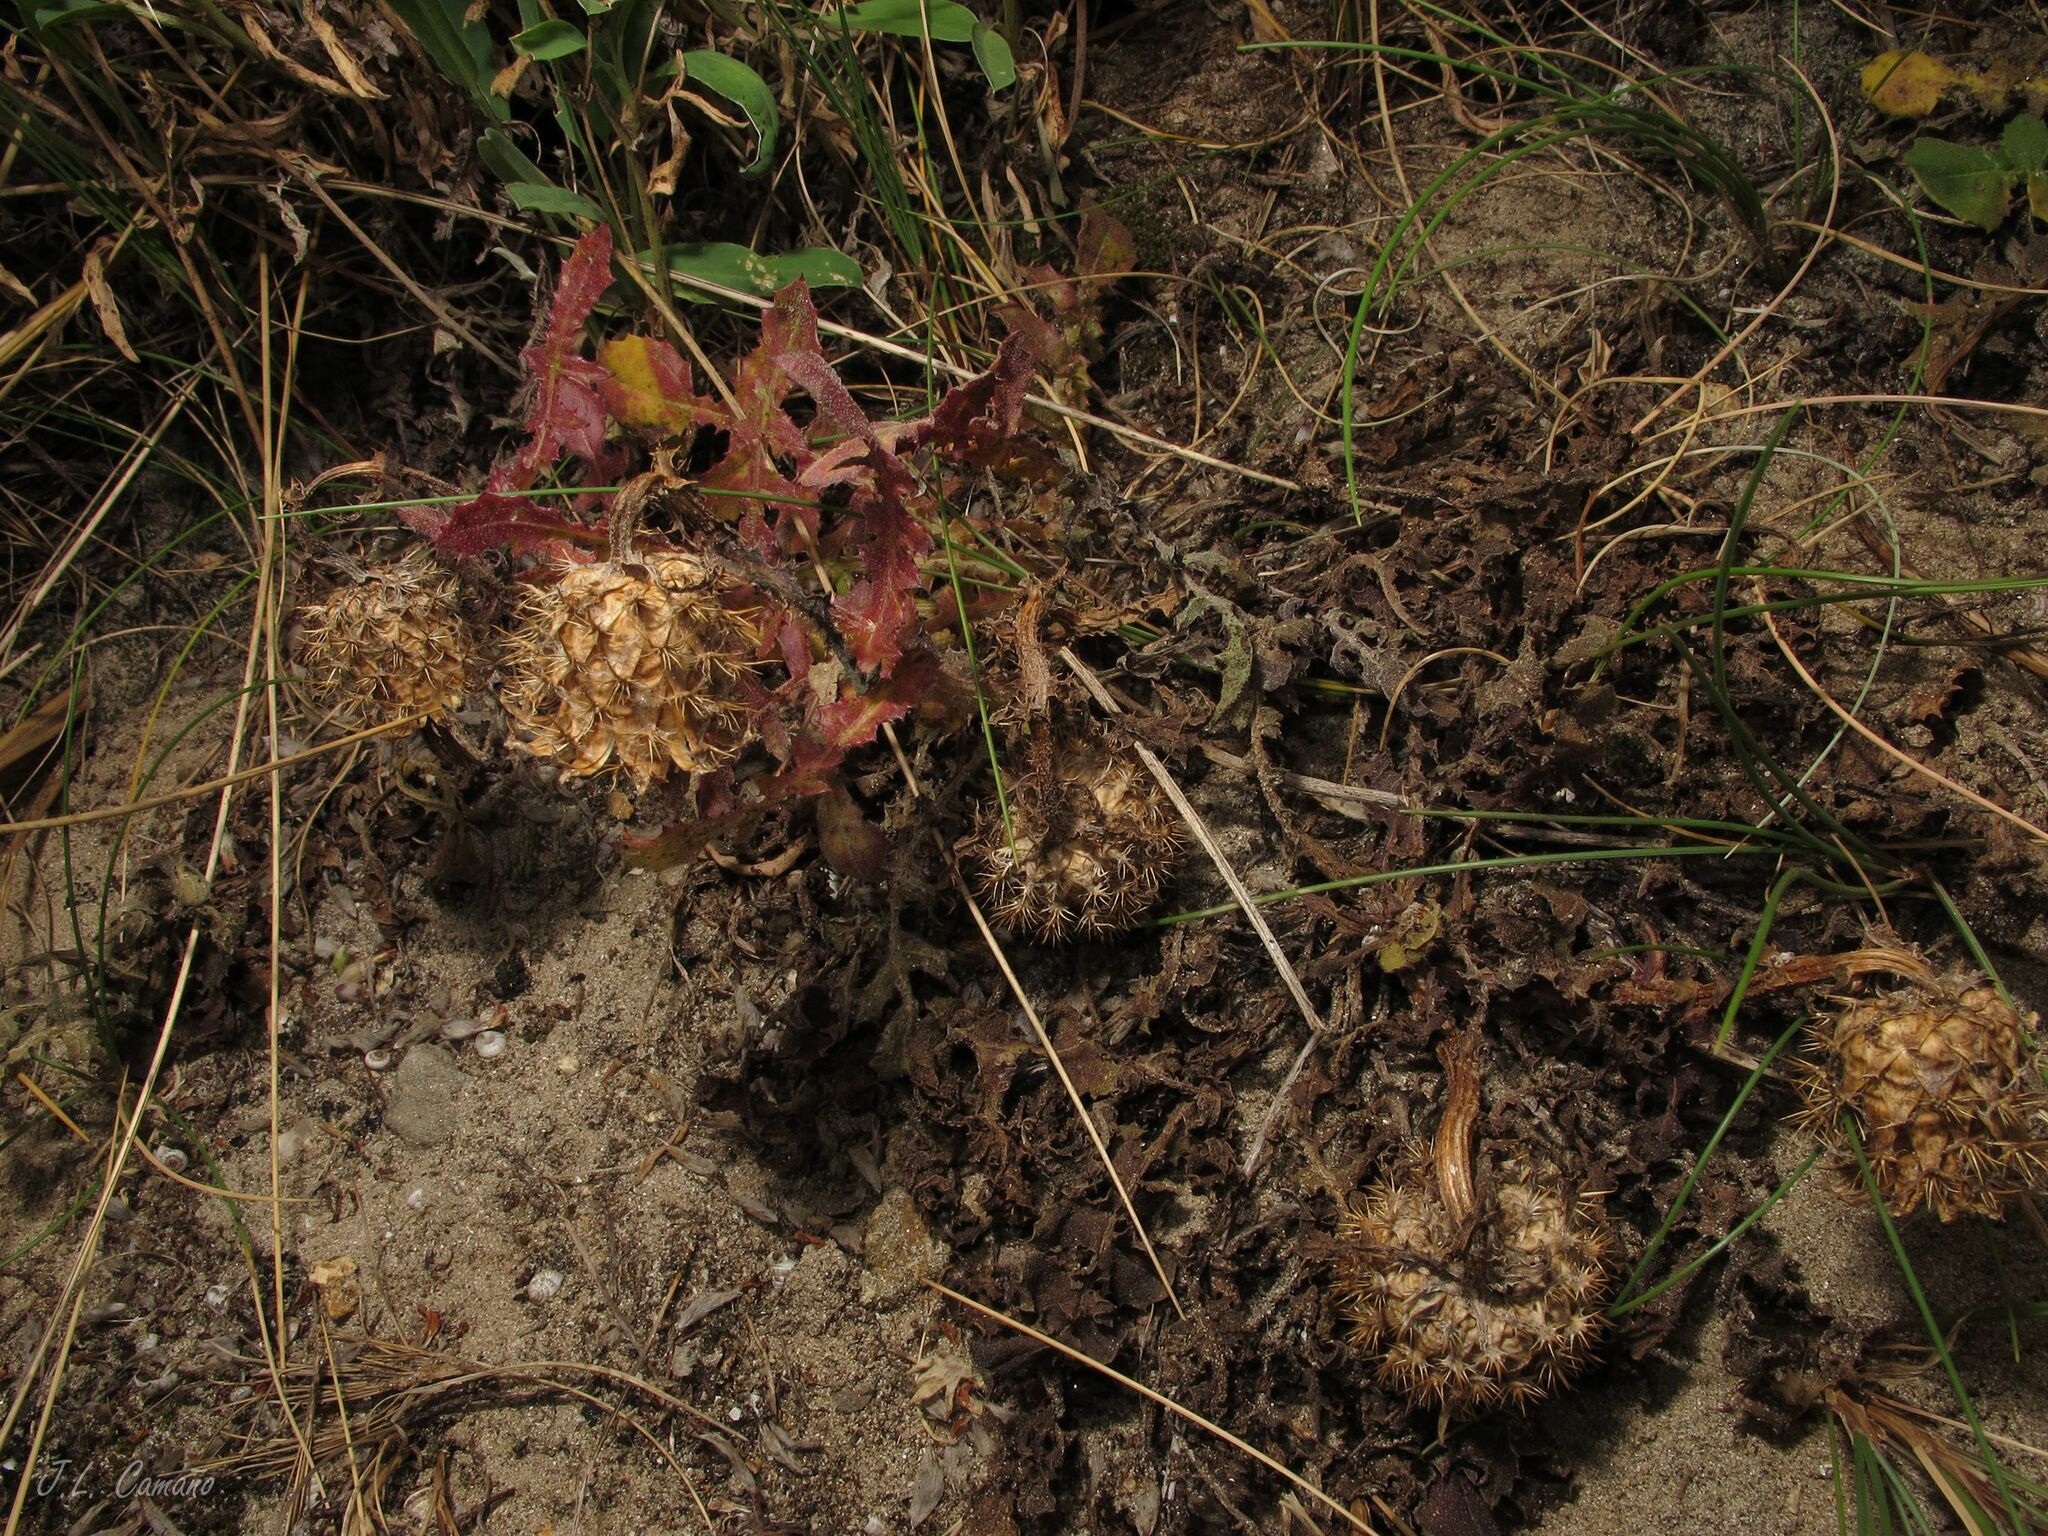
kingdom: Plantae
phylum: Tracheophyta
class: Magnoliopsida
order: Asterales
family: Asteraceae
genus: Centaurea
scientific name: Centaurea polyacantha
